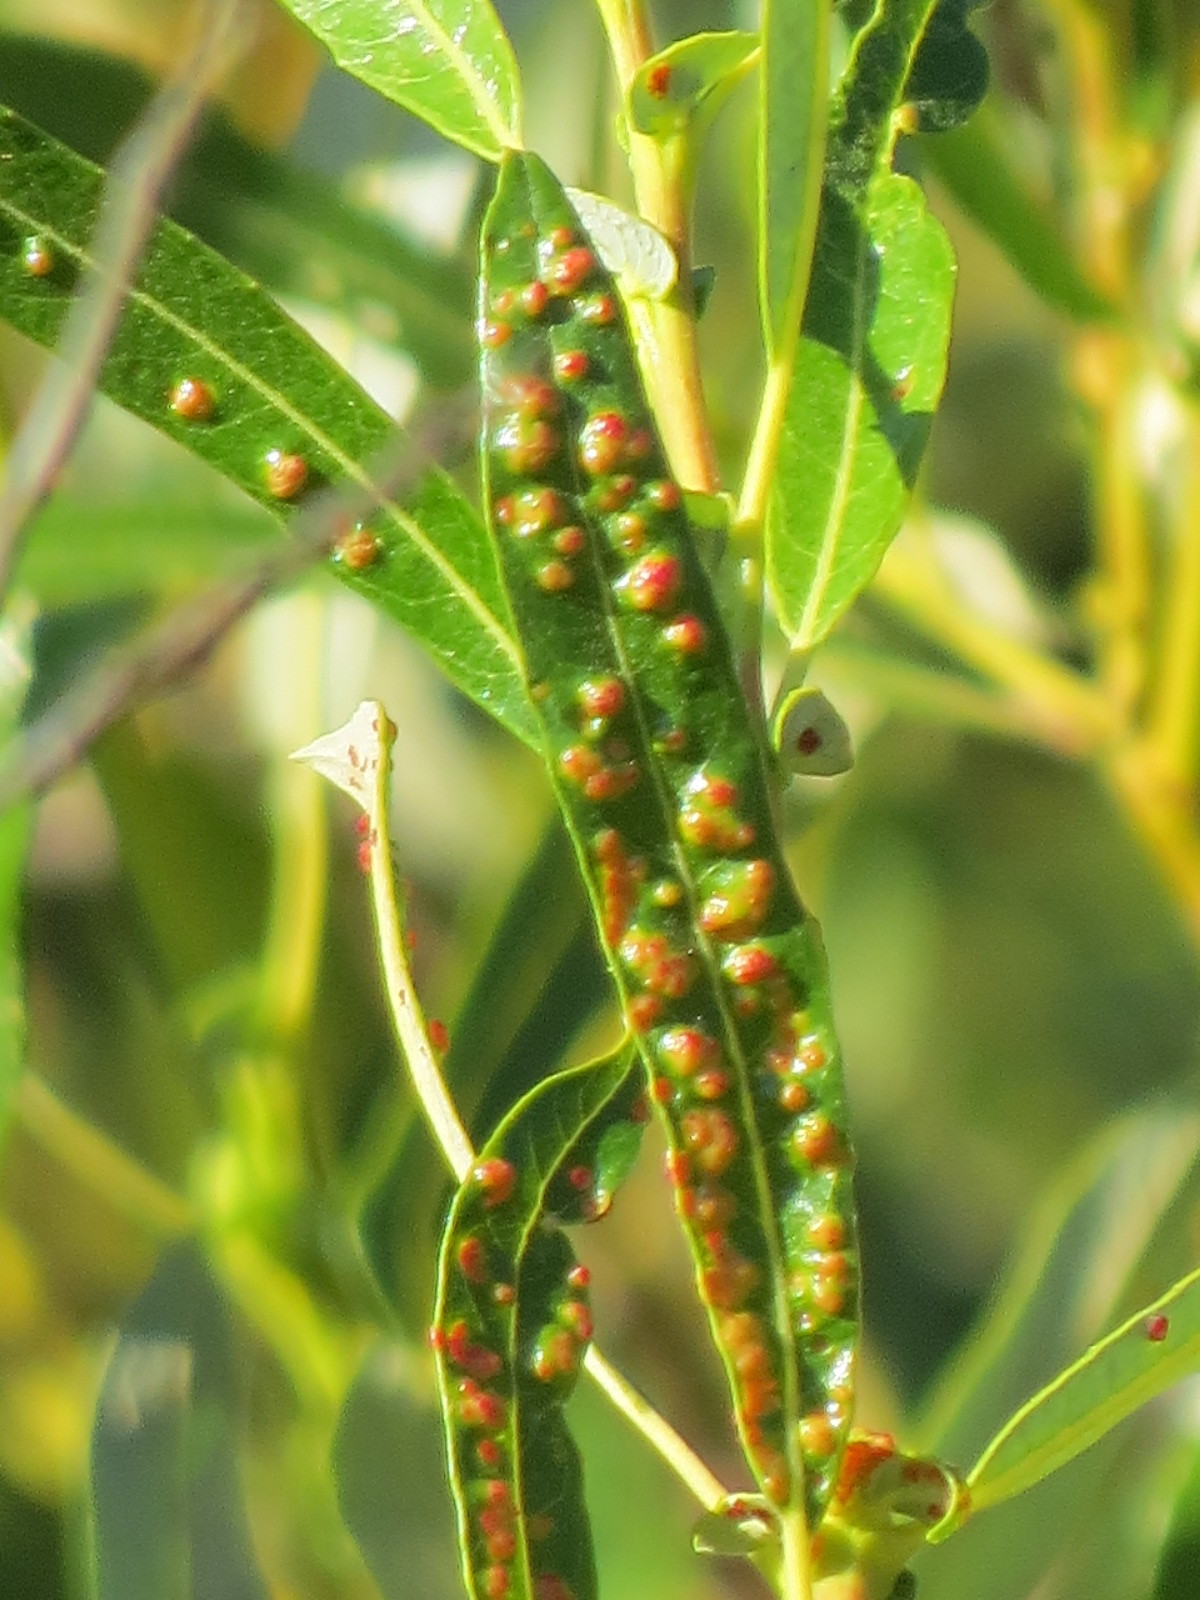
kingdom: Animalia
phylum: Arthropoda
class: Arachnida
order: Trombidiformes
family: Eriophyidae
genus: Aculus
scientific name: Aculus tetanothrix
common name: Willow bead gall mite
